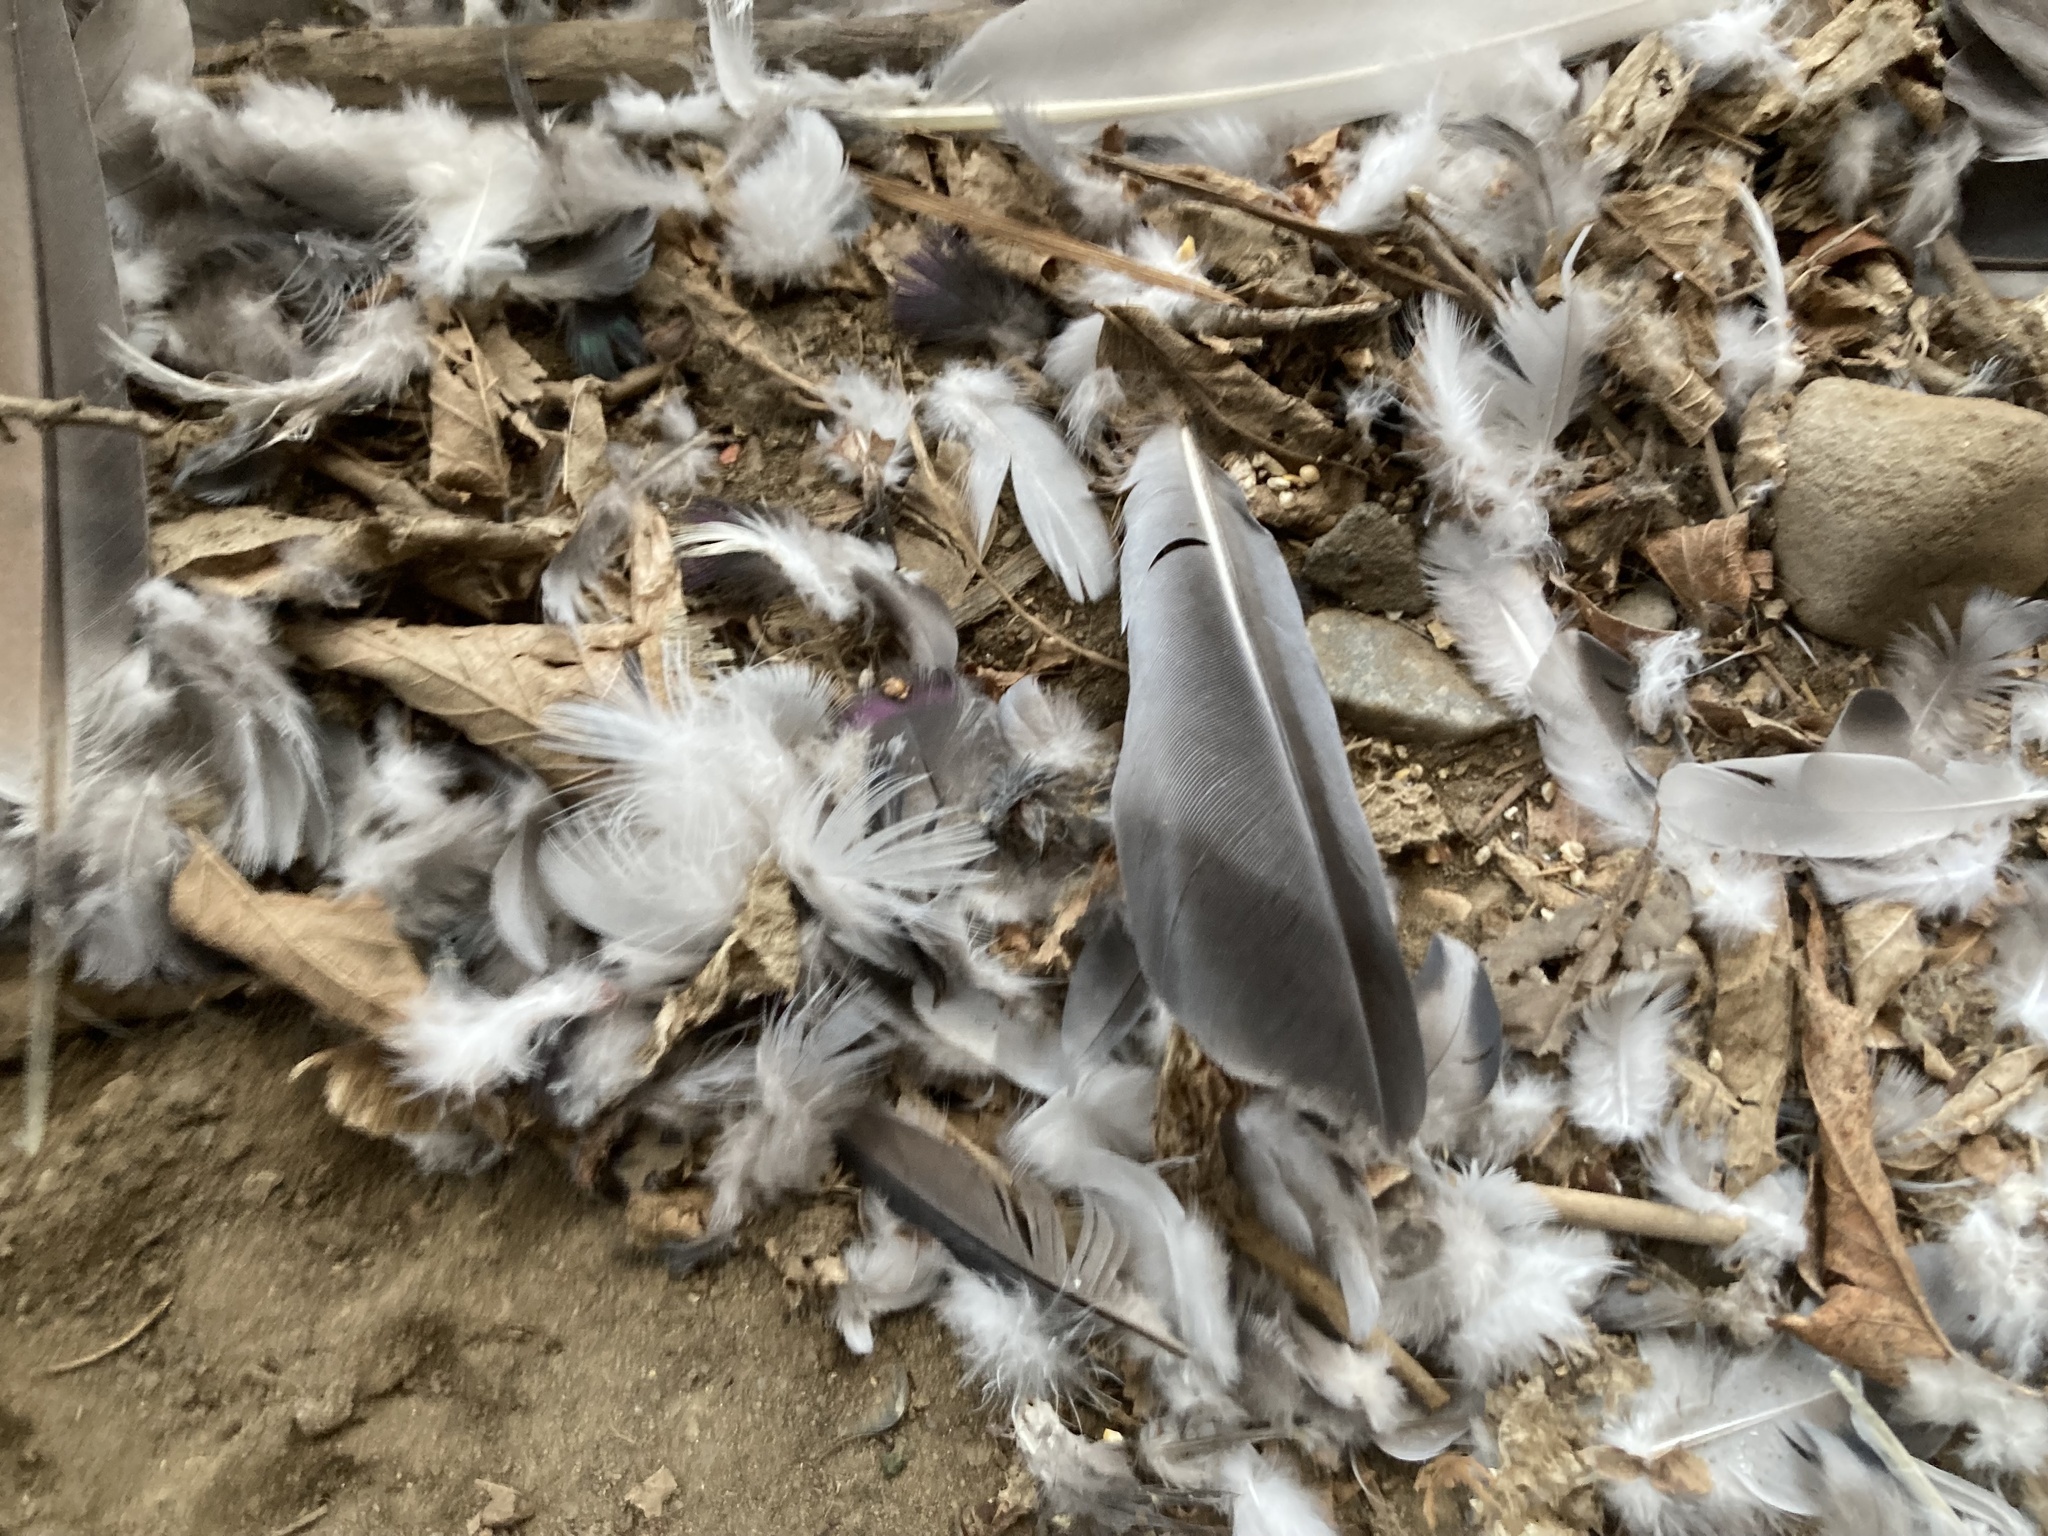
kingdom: Animalia
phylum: Chordata
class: Aves
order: Columbiformes
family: Columbidae
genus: Columba
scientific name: Columba livia
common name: Rock pigeon
